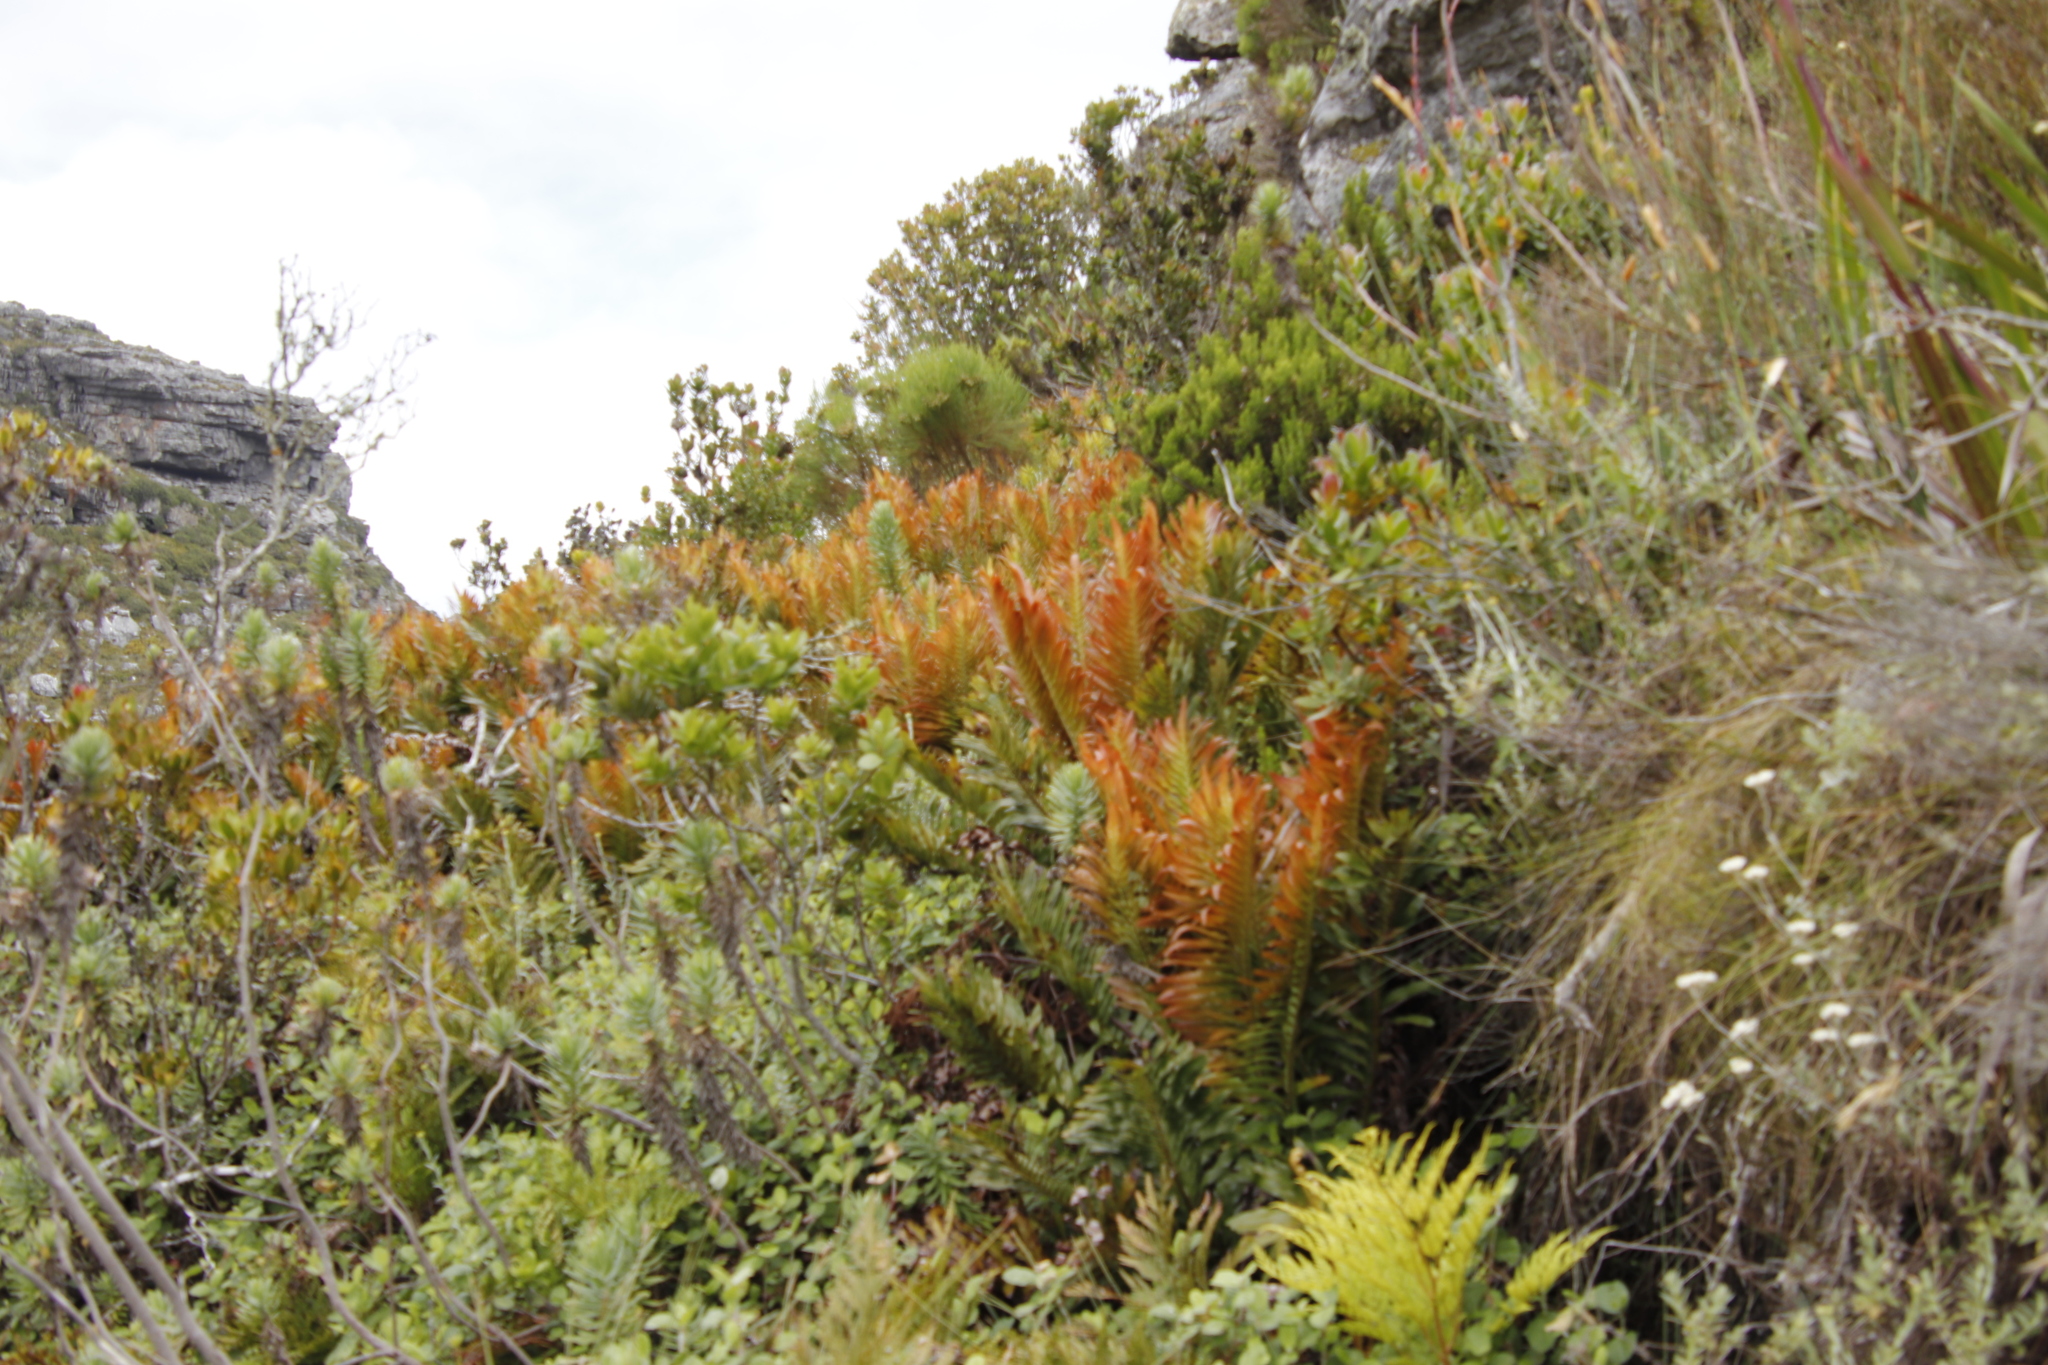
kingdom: Plantae
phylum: Tracheophyta
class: Polypodiopsida
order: Polypodiales
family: Blechnaceae
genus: Lomariocycas
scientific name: Lomariocycas tabularis
